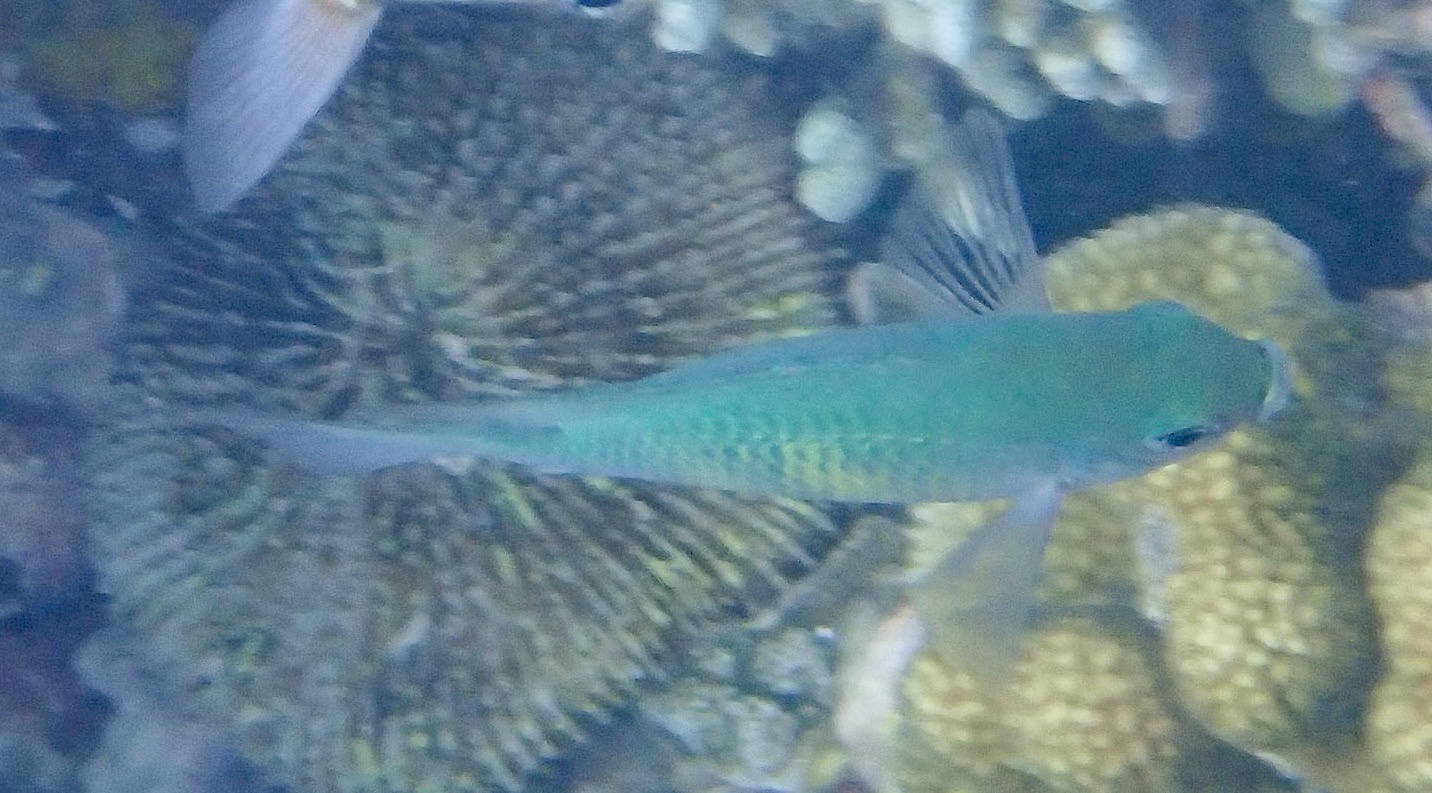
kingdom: Animalia
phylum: Chordata
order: Perciformes
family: Pomacentridae
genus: Amblyglyphidodon
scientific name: Amblyglyphidodon curacao
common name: Staghorn damsel
